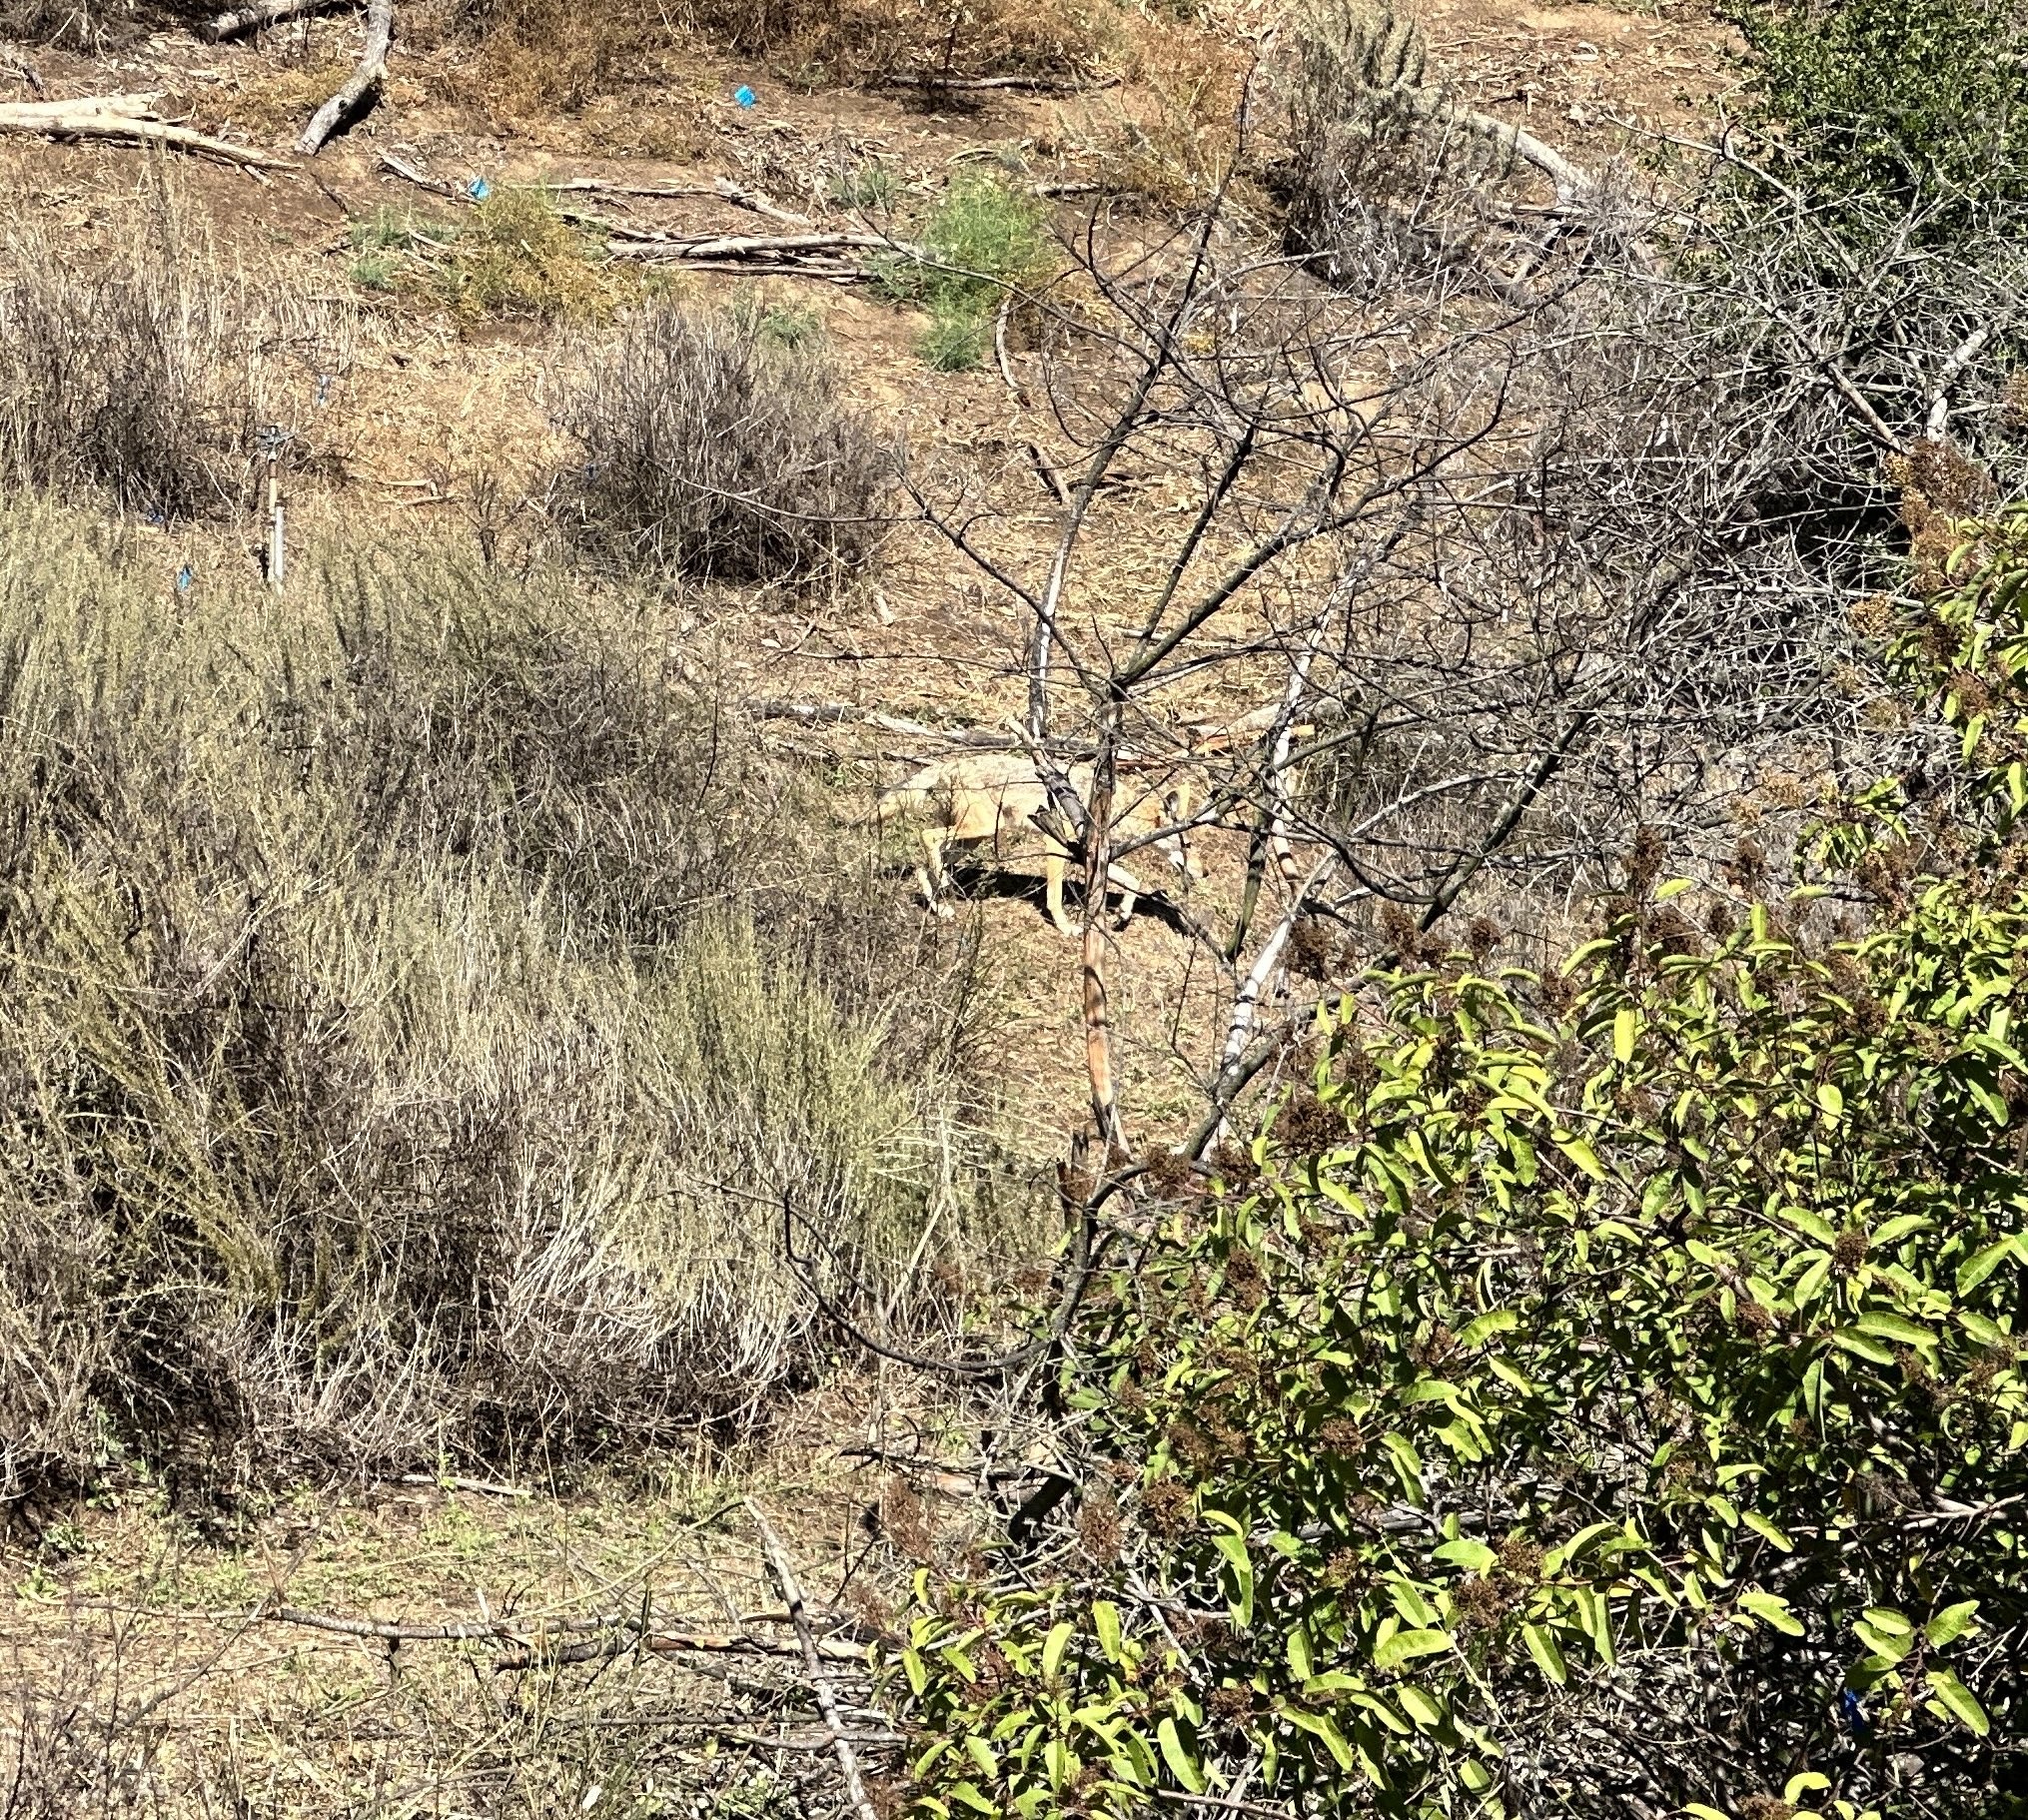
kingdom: Animalia
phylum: Chordata
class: Mammalia
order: Carnivora
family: Canidae
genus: Canis
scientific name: Canis latrans
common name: Coyote
